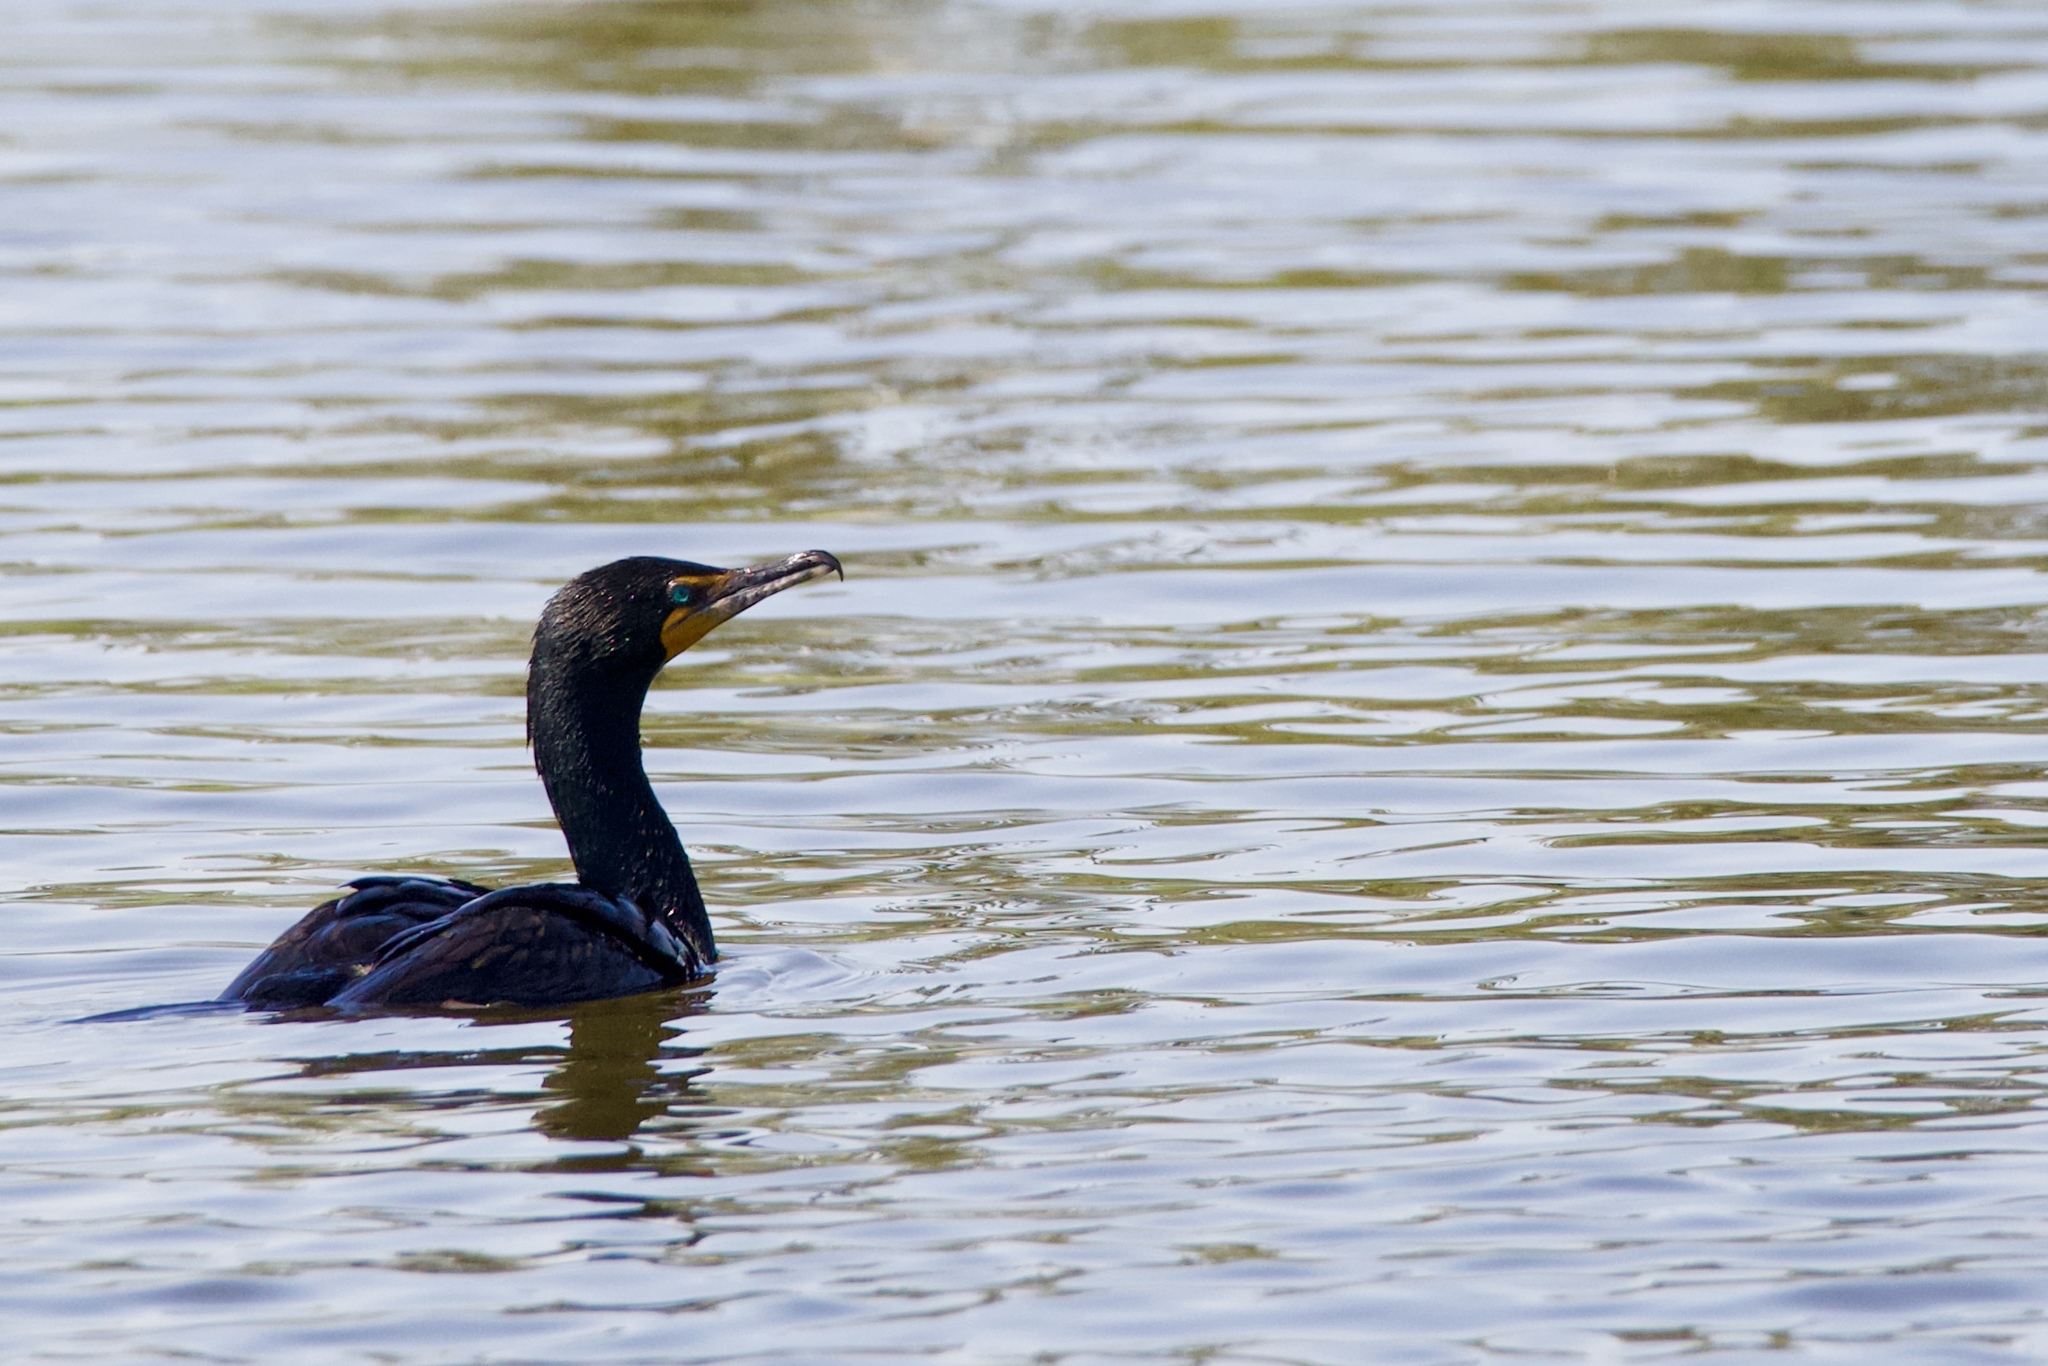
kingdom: Animalia
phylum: Chordata
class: Aves
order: Suliformes
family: Phalacrocoracidae
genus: Phalacrocorax
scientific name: Phalacrocorax auritus
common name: Double-crested cormorant
